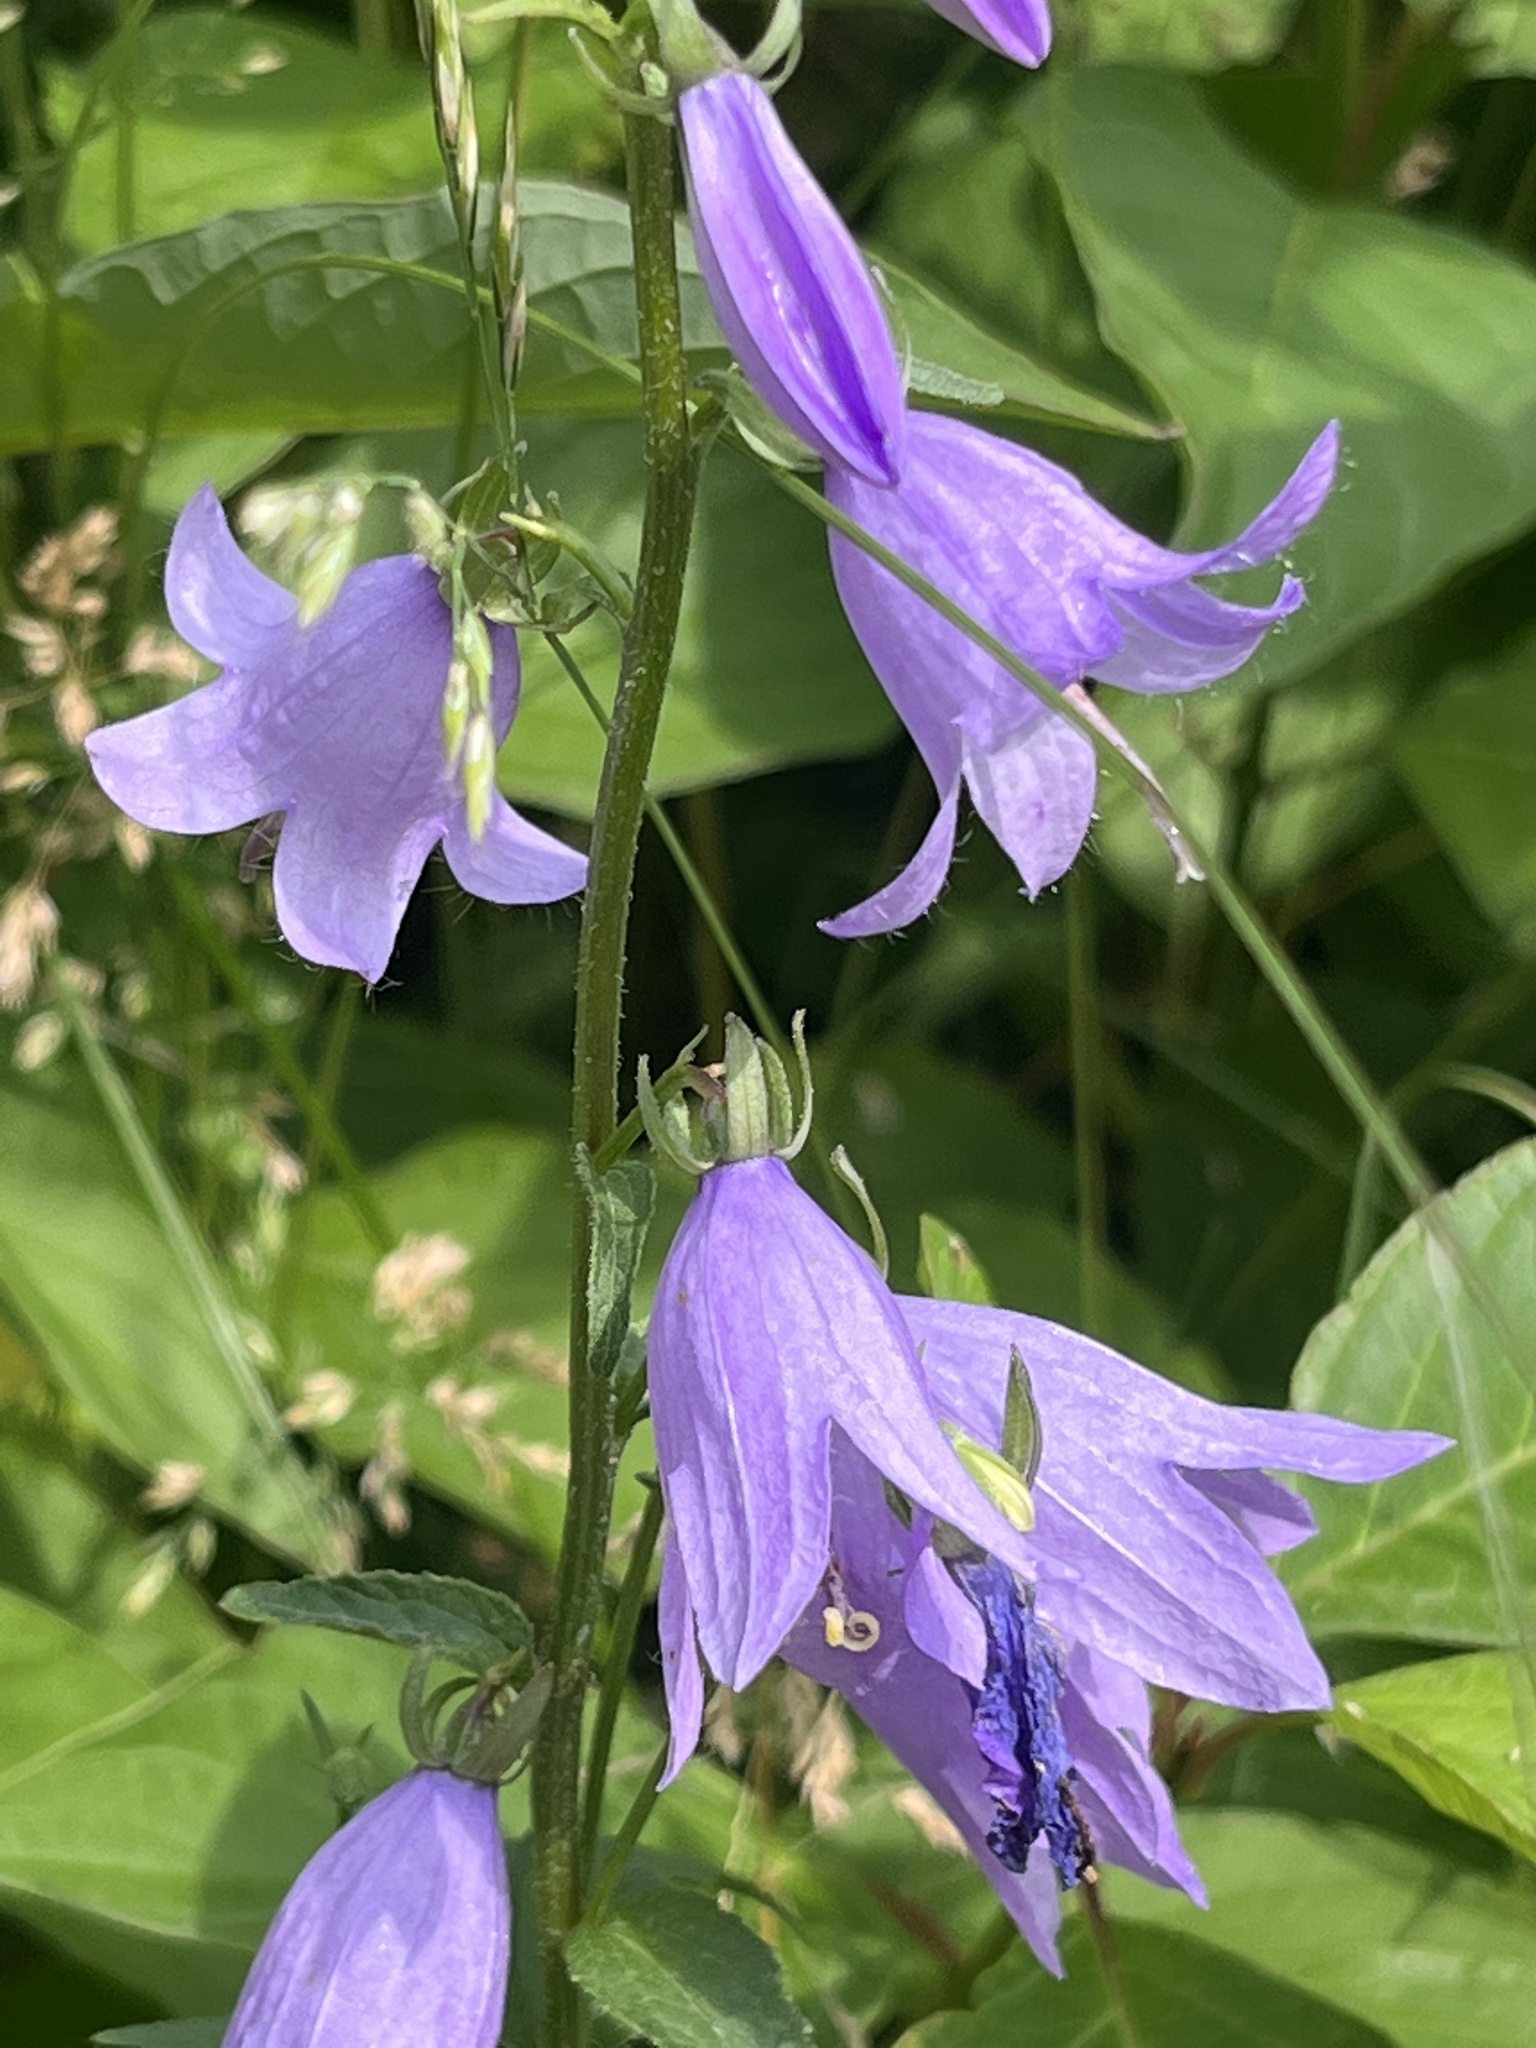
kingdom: Plantae
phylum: Tracheophyta
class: Magnoliopsida
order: Asterales
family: Campanulaceae
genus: Campanula
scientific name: Campanula rapunculoides
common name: Creeping bellflower
